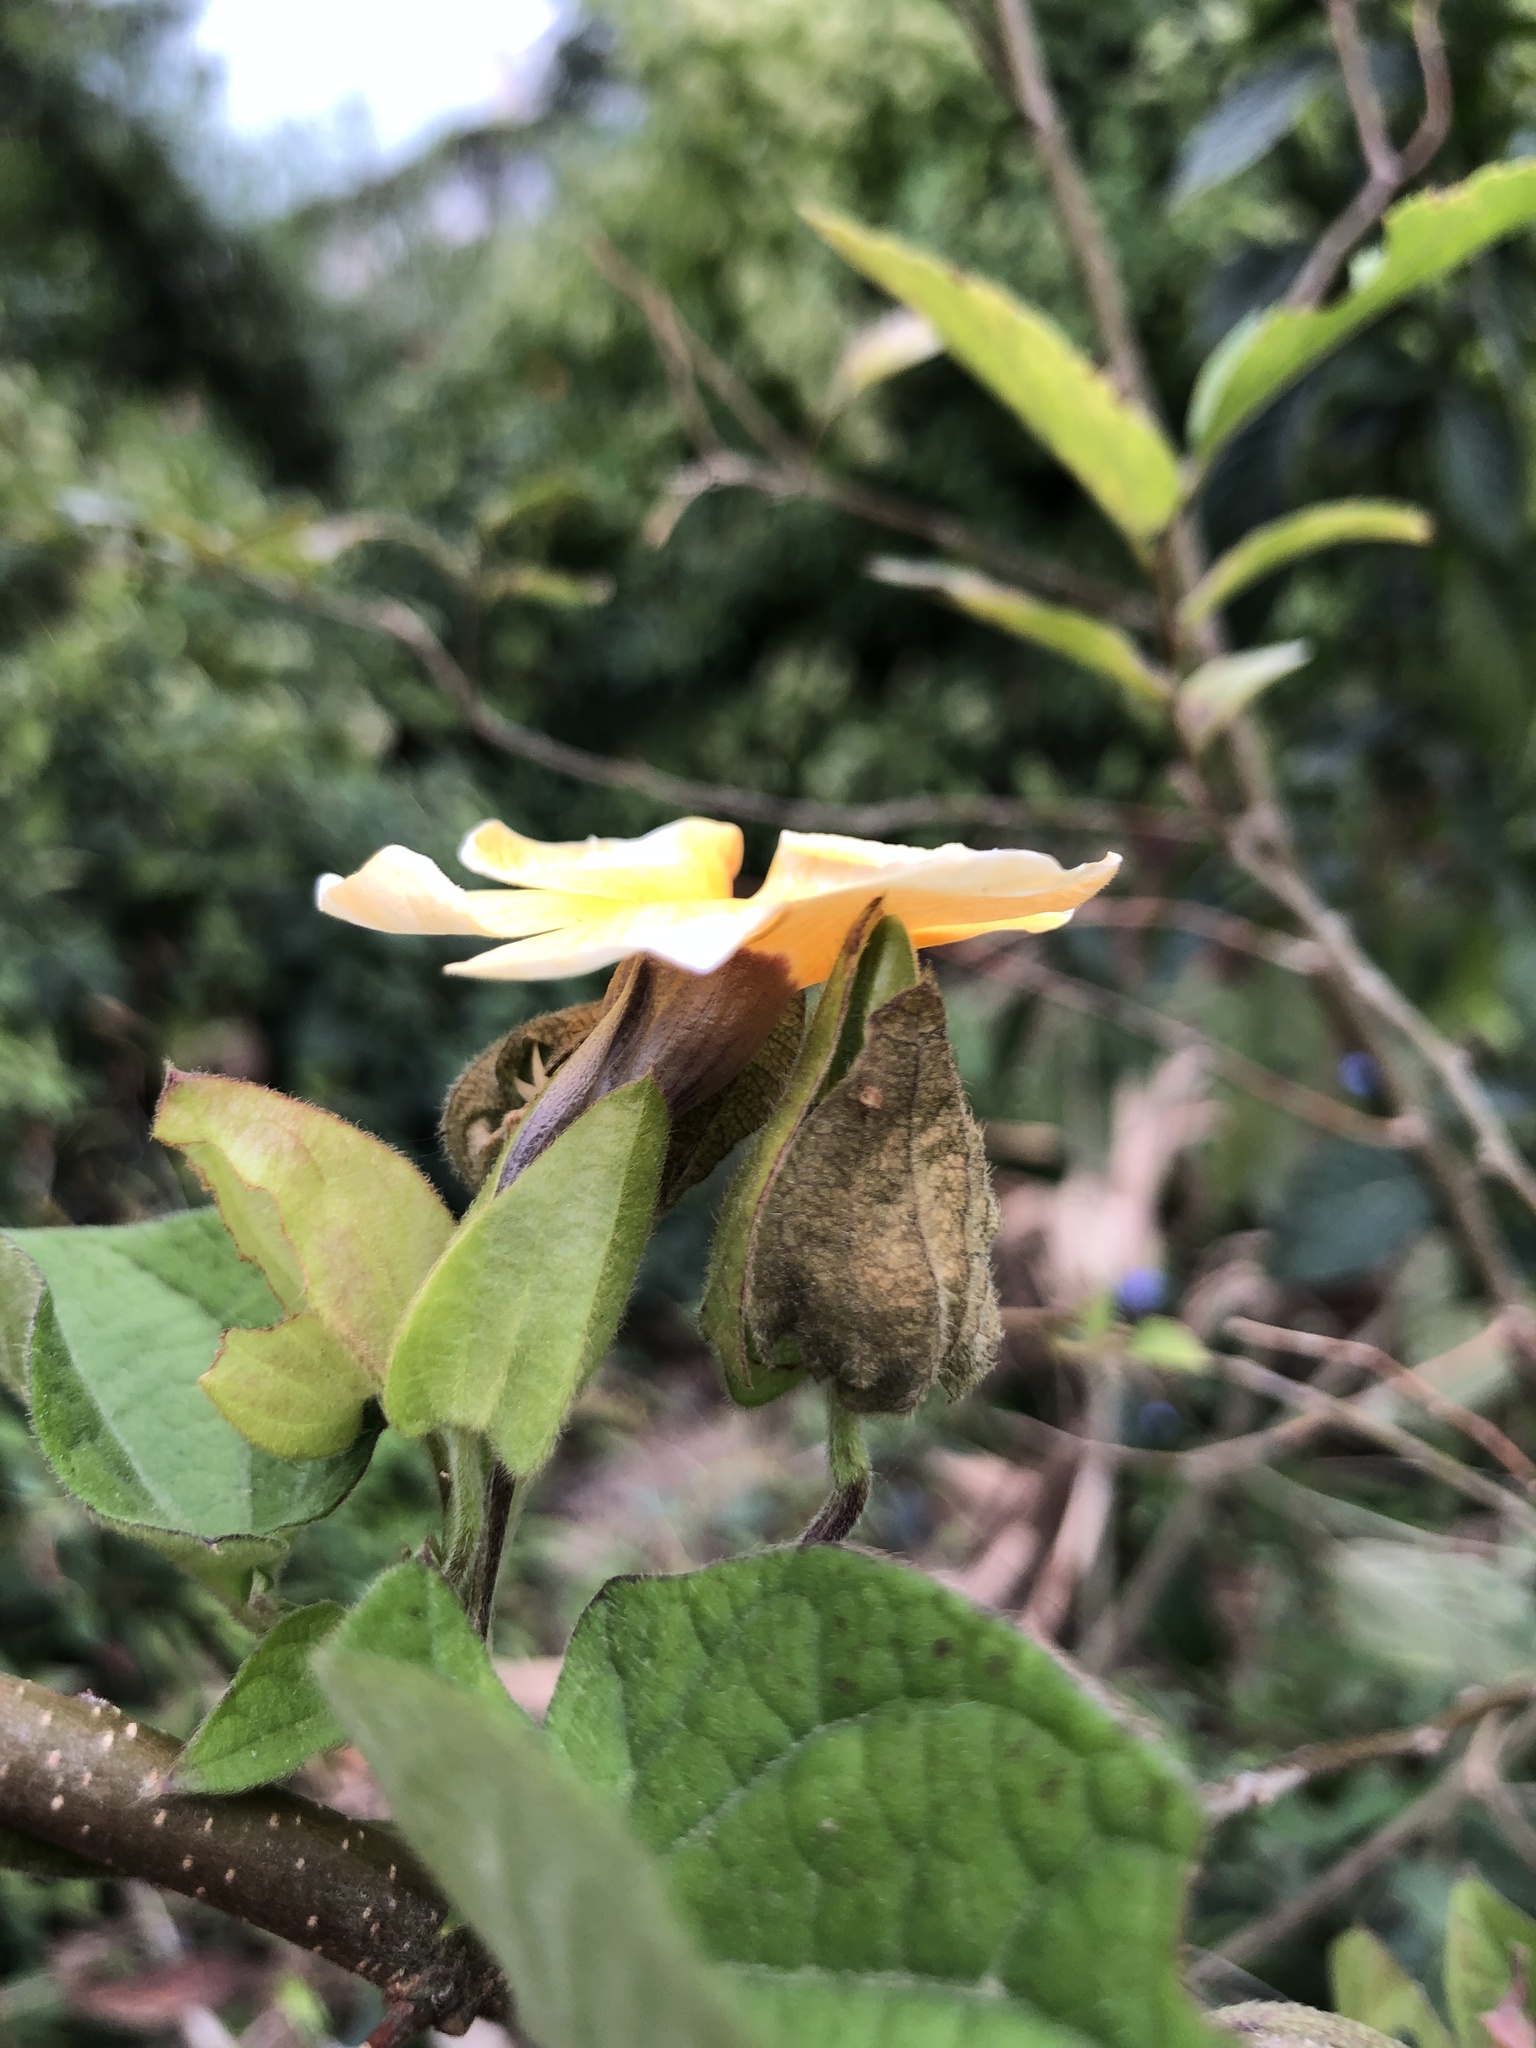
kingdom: Plantae
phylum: Tracheophyta
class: Magnoliopsida
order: Lamiales
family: Acanthaceae
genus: Thunbergia
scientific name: Thunbergia alata
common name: Blackeyed susan vine
